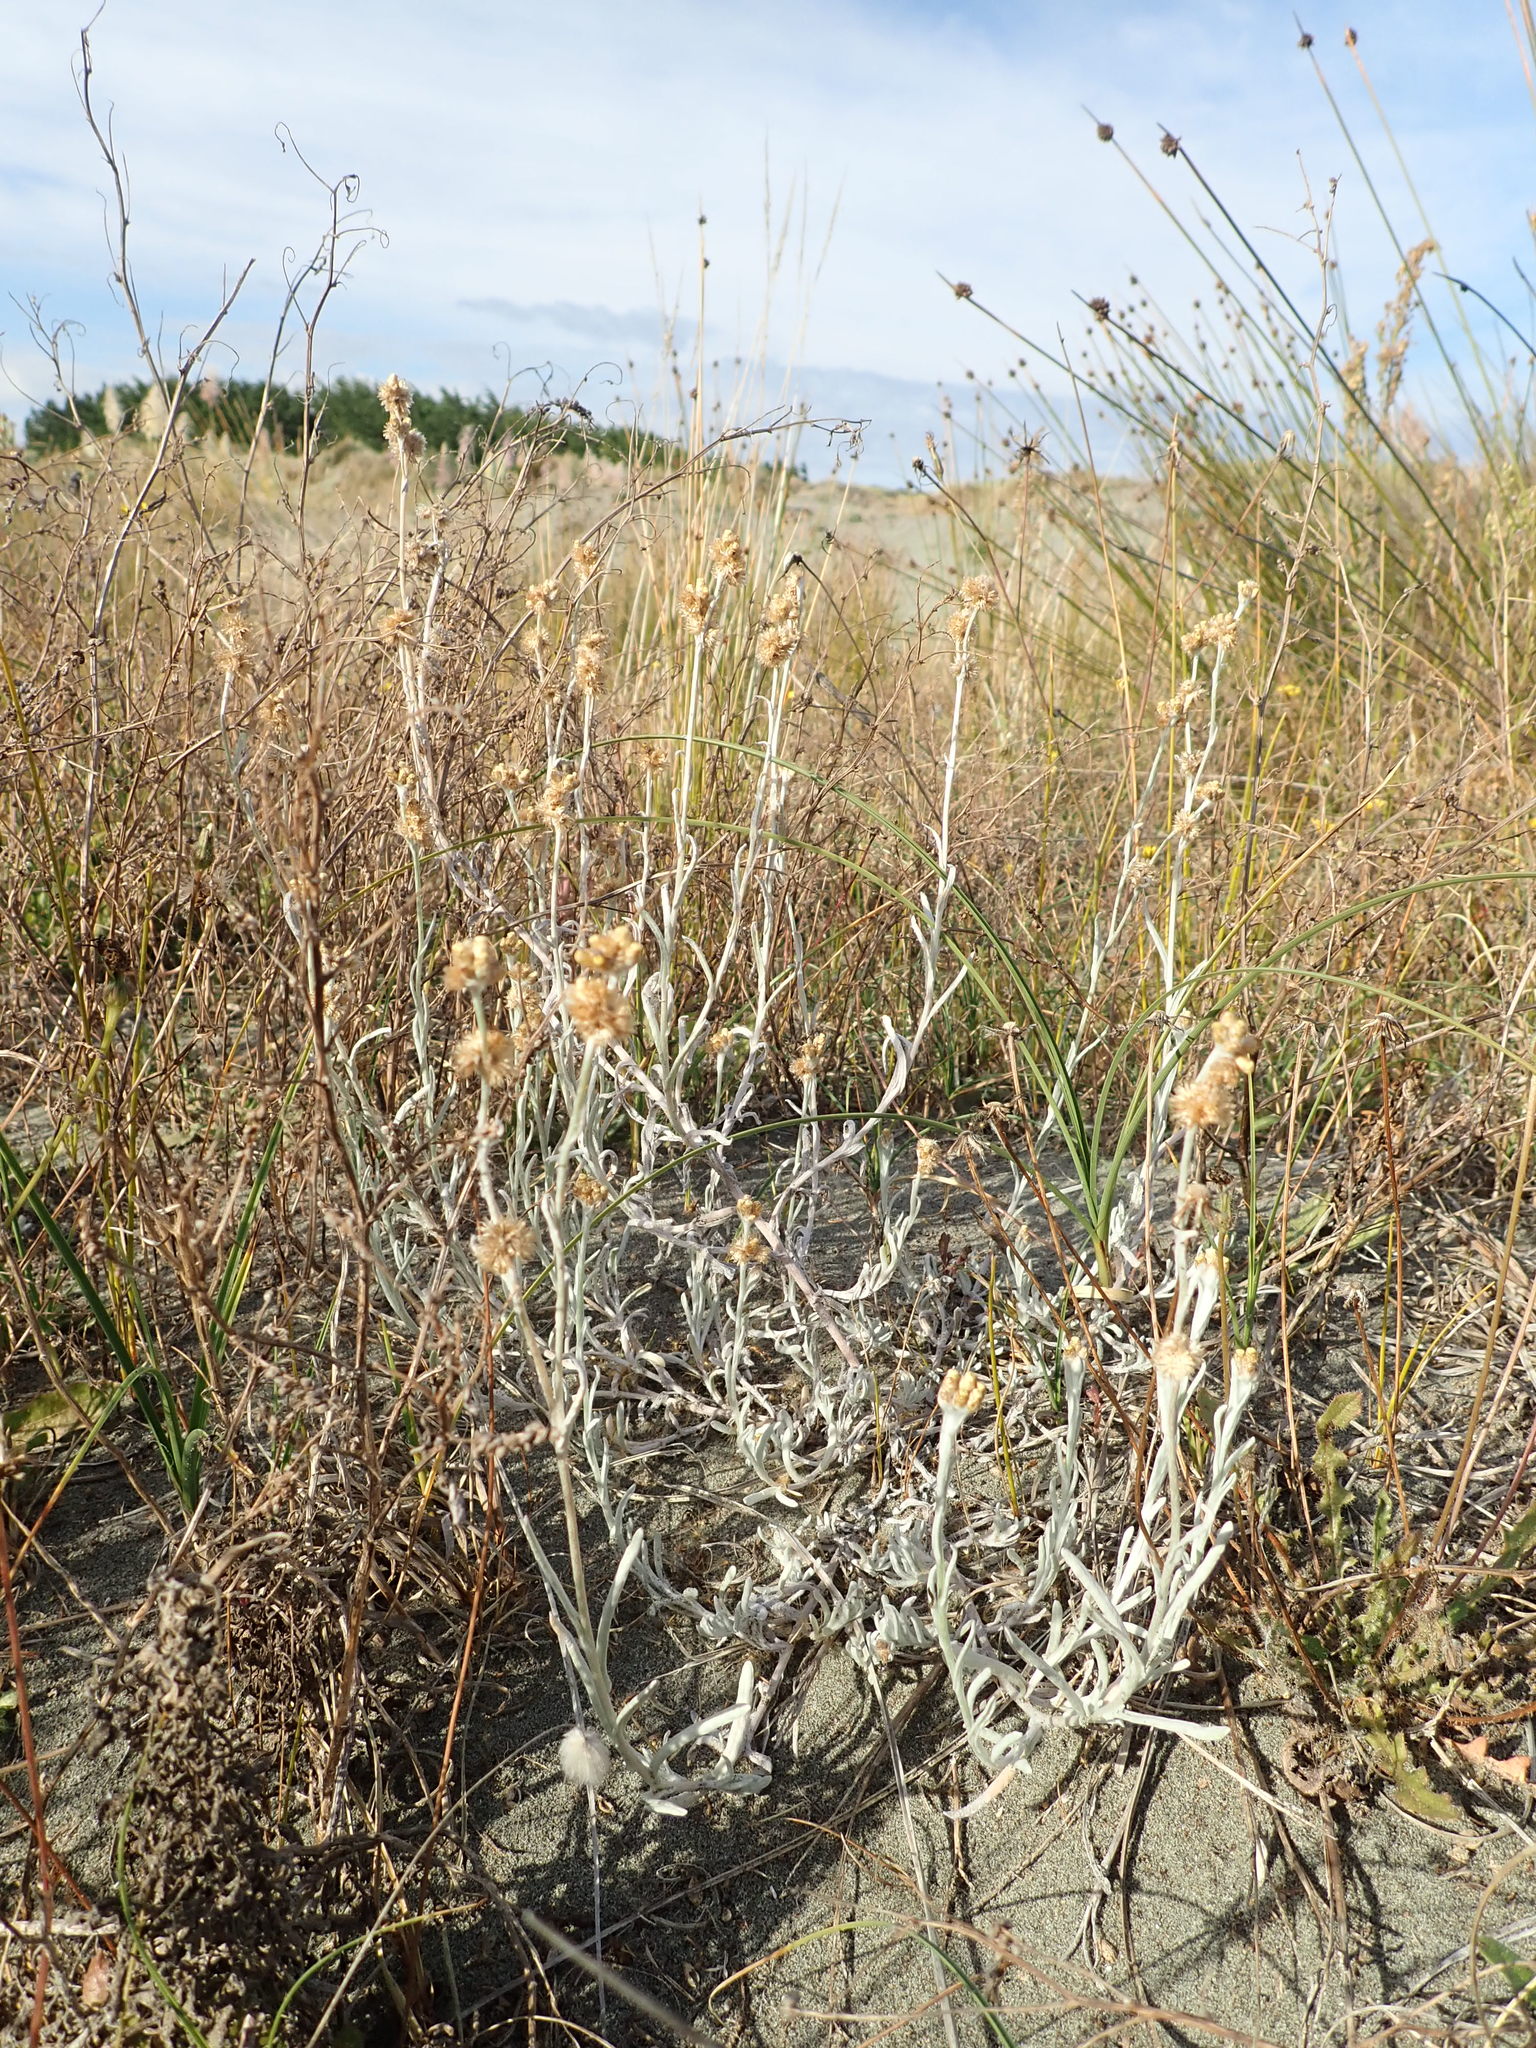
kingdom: Plantae
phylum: Tracheophyta
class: Magnoliopsida
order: Asterales
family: Asteraceae
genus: Pseudognaphalium
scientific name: Pseudognaphalium
